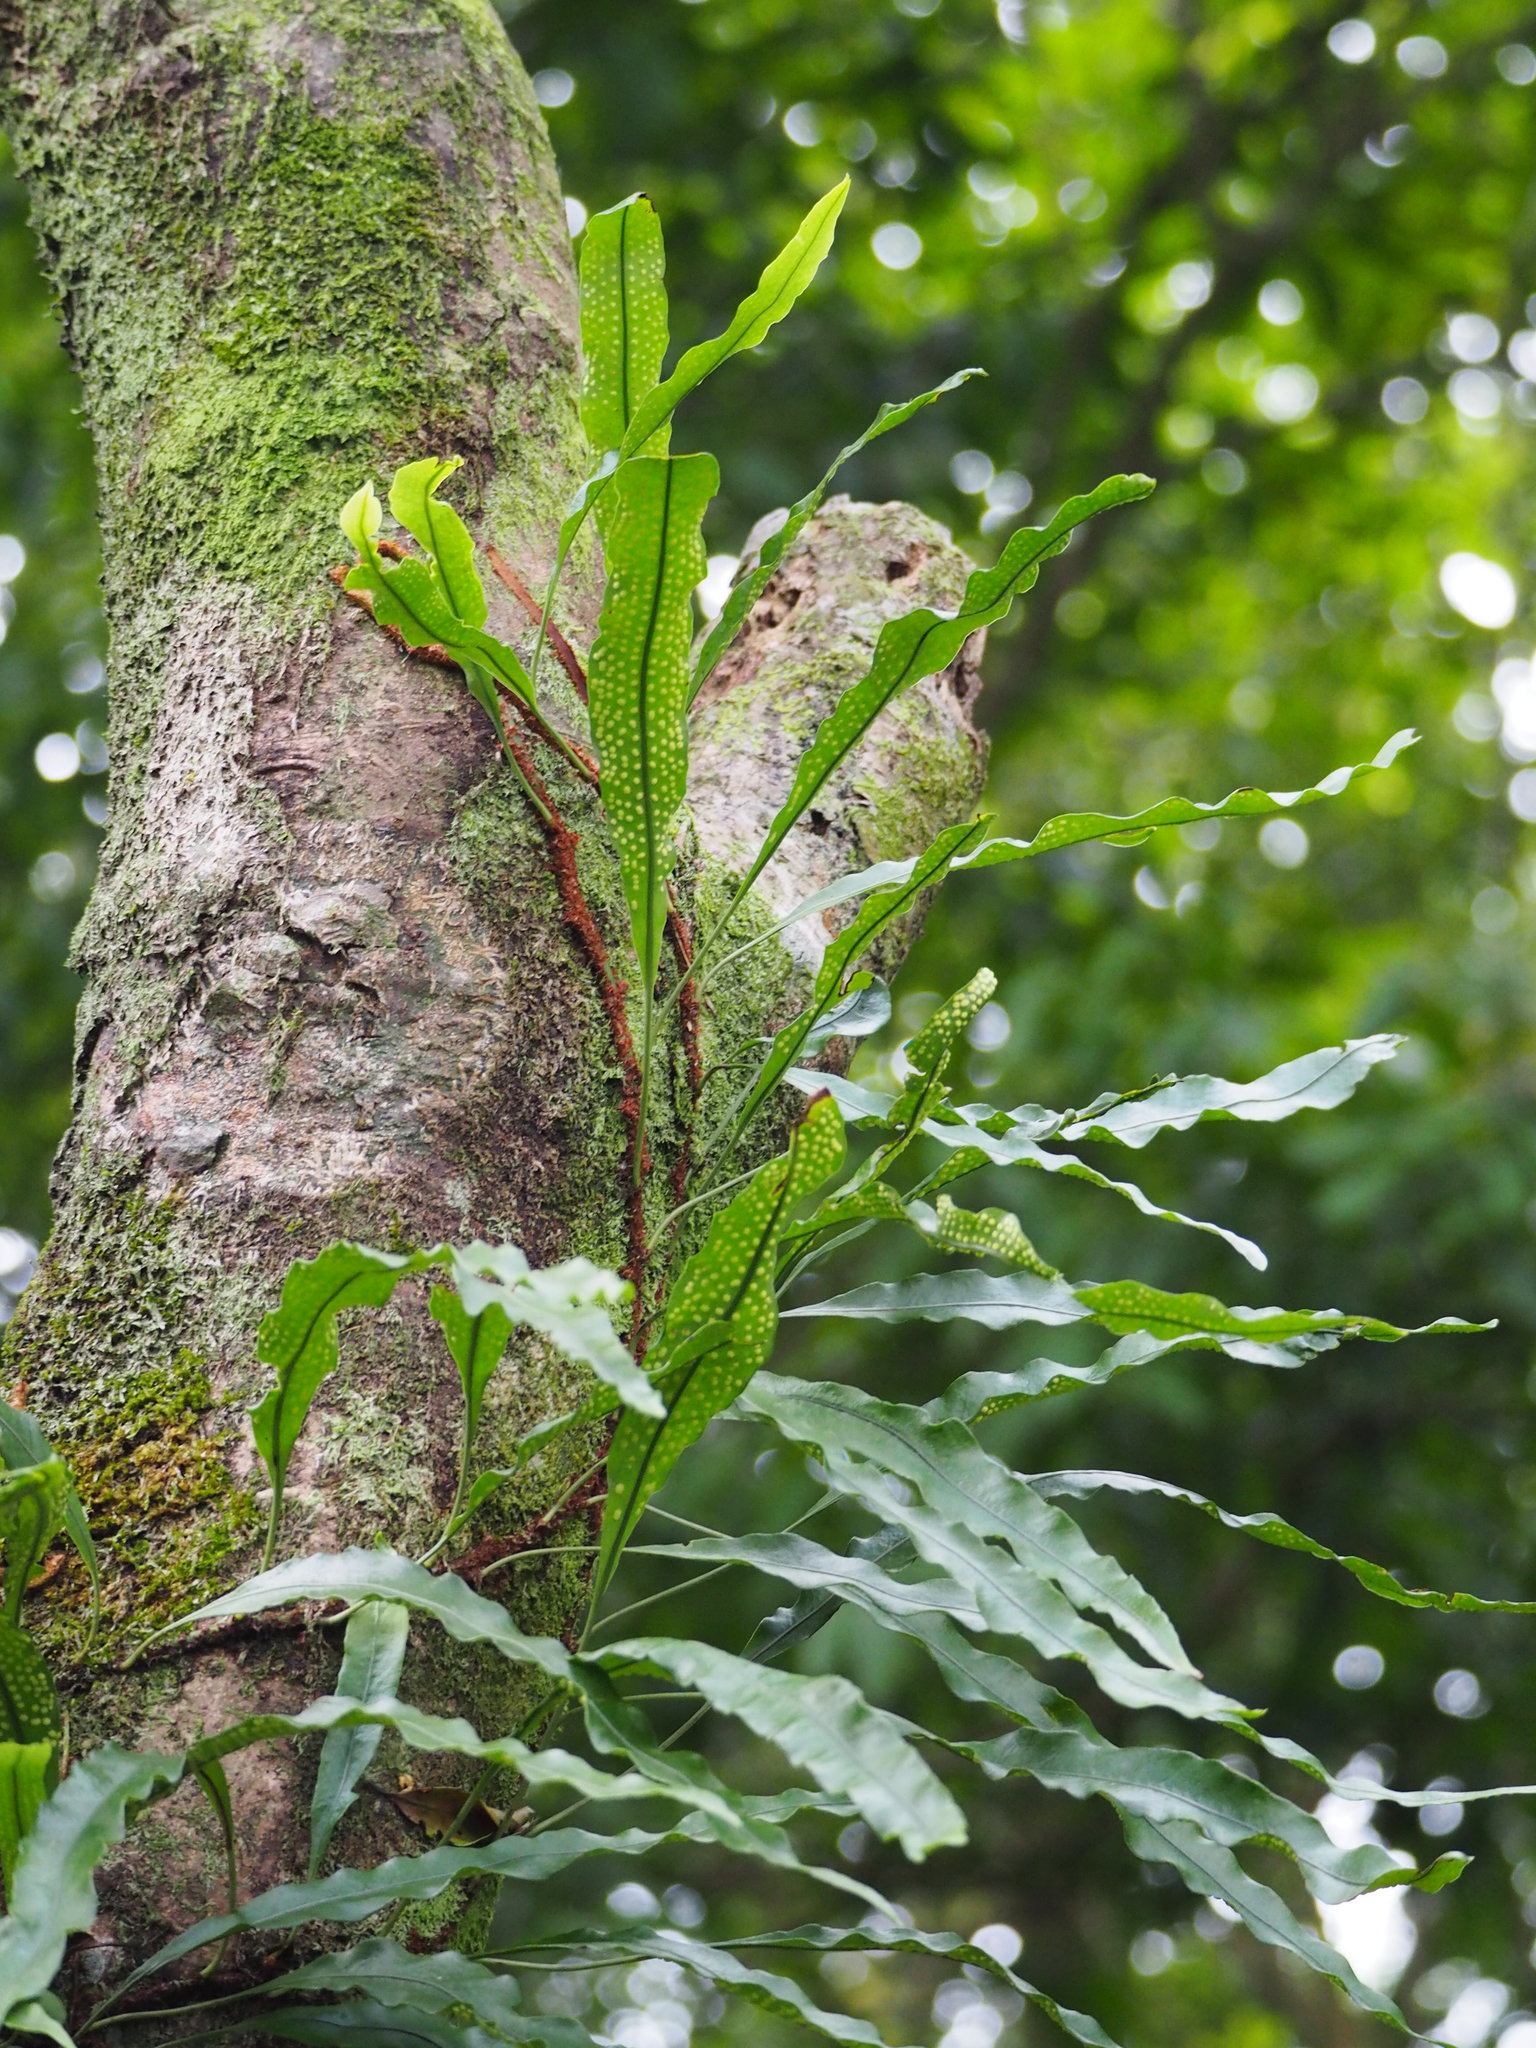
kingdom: Plantae
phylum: Tracheophyta
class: Polypodiopsida
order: Polypodiales
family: Polypodiaceae
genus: Lepisorus
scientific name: Lepisorus superficialis
